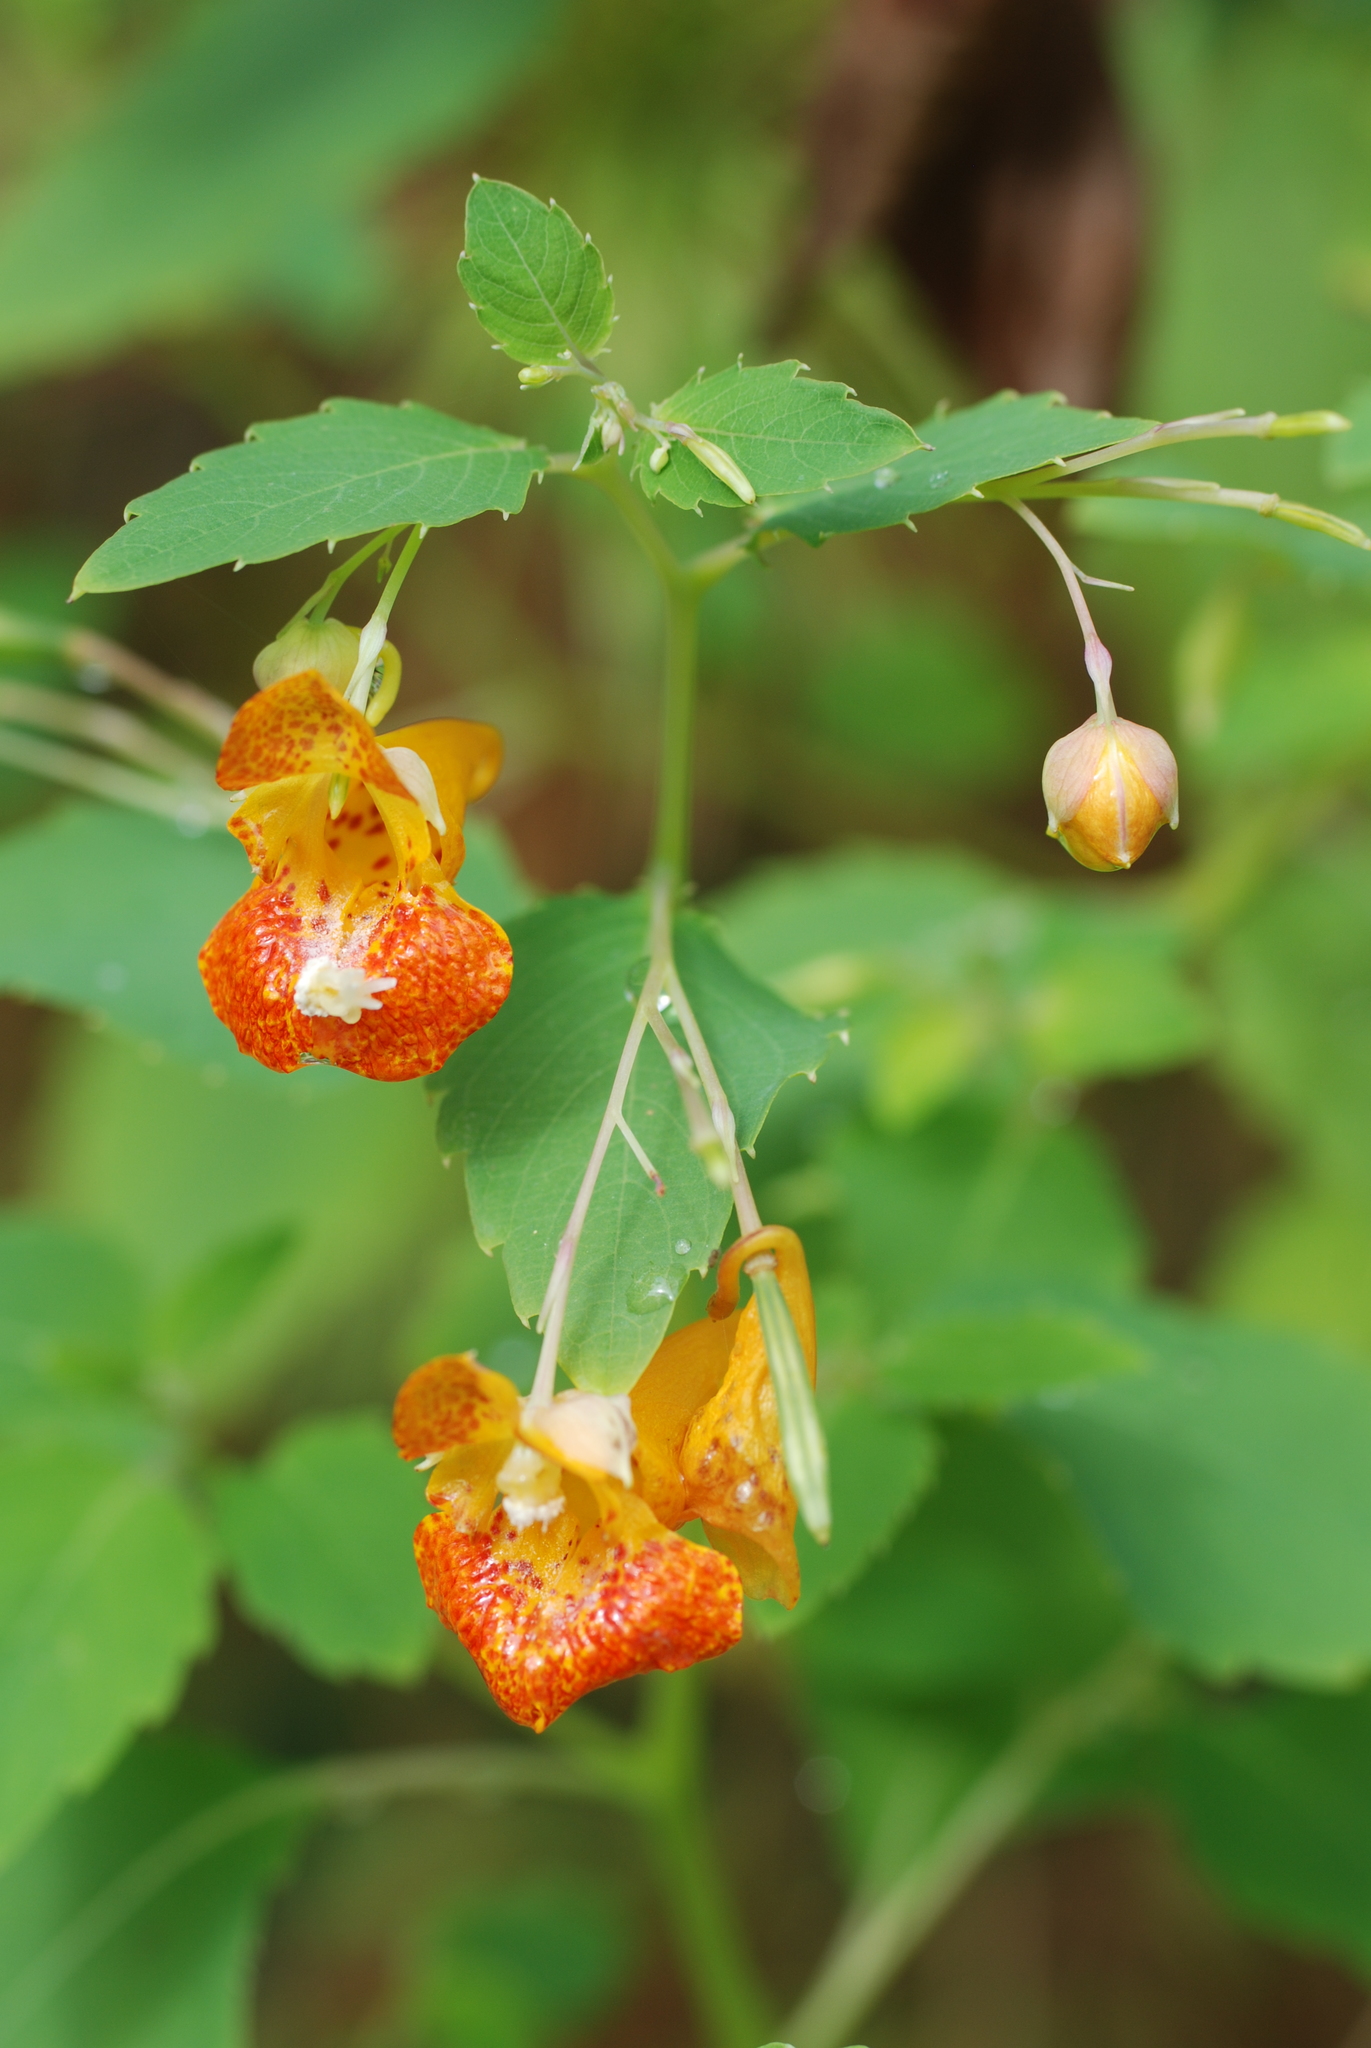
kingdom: Plantae
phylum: Tracheophyta
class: Magnoliopsida
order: Ericales
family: Balsaminaceae
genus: Impatiens
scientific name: Impatiens capensis
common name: Orange balsam
